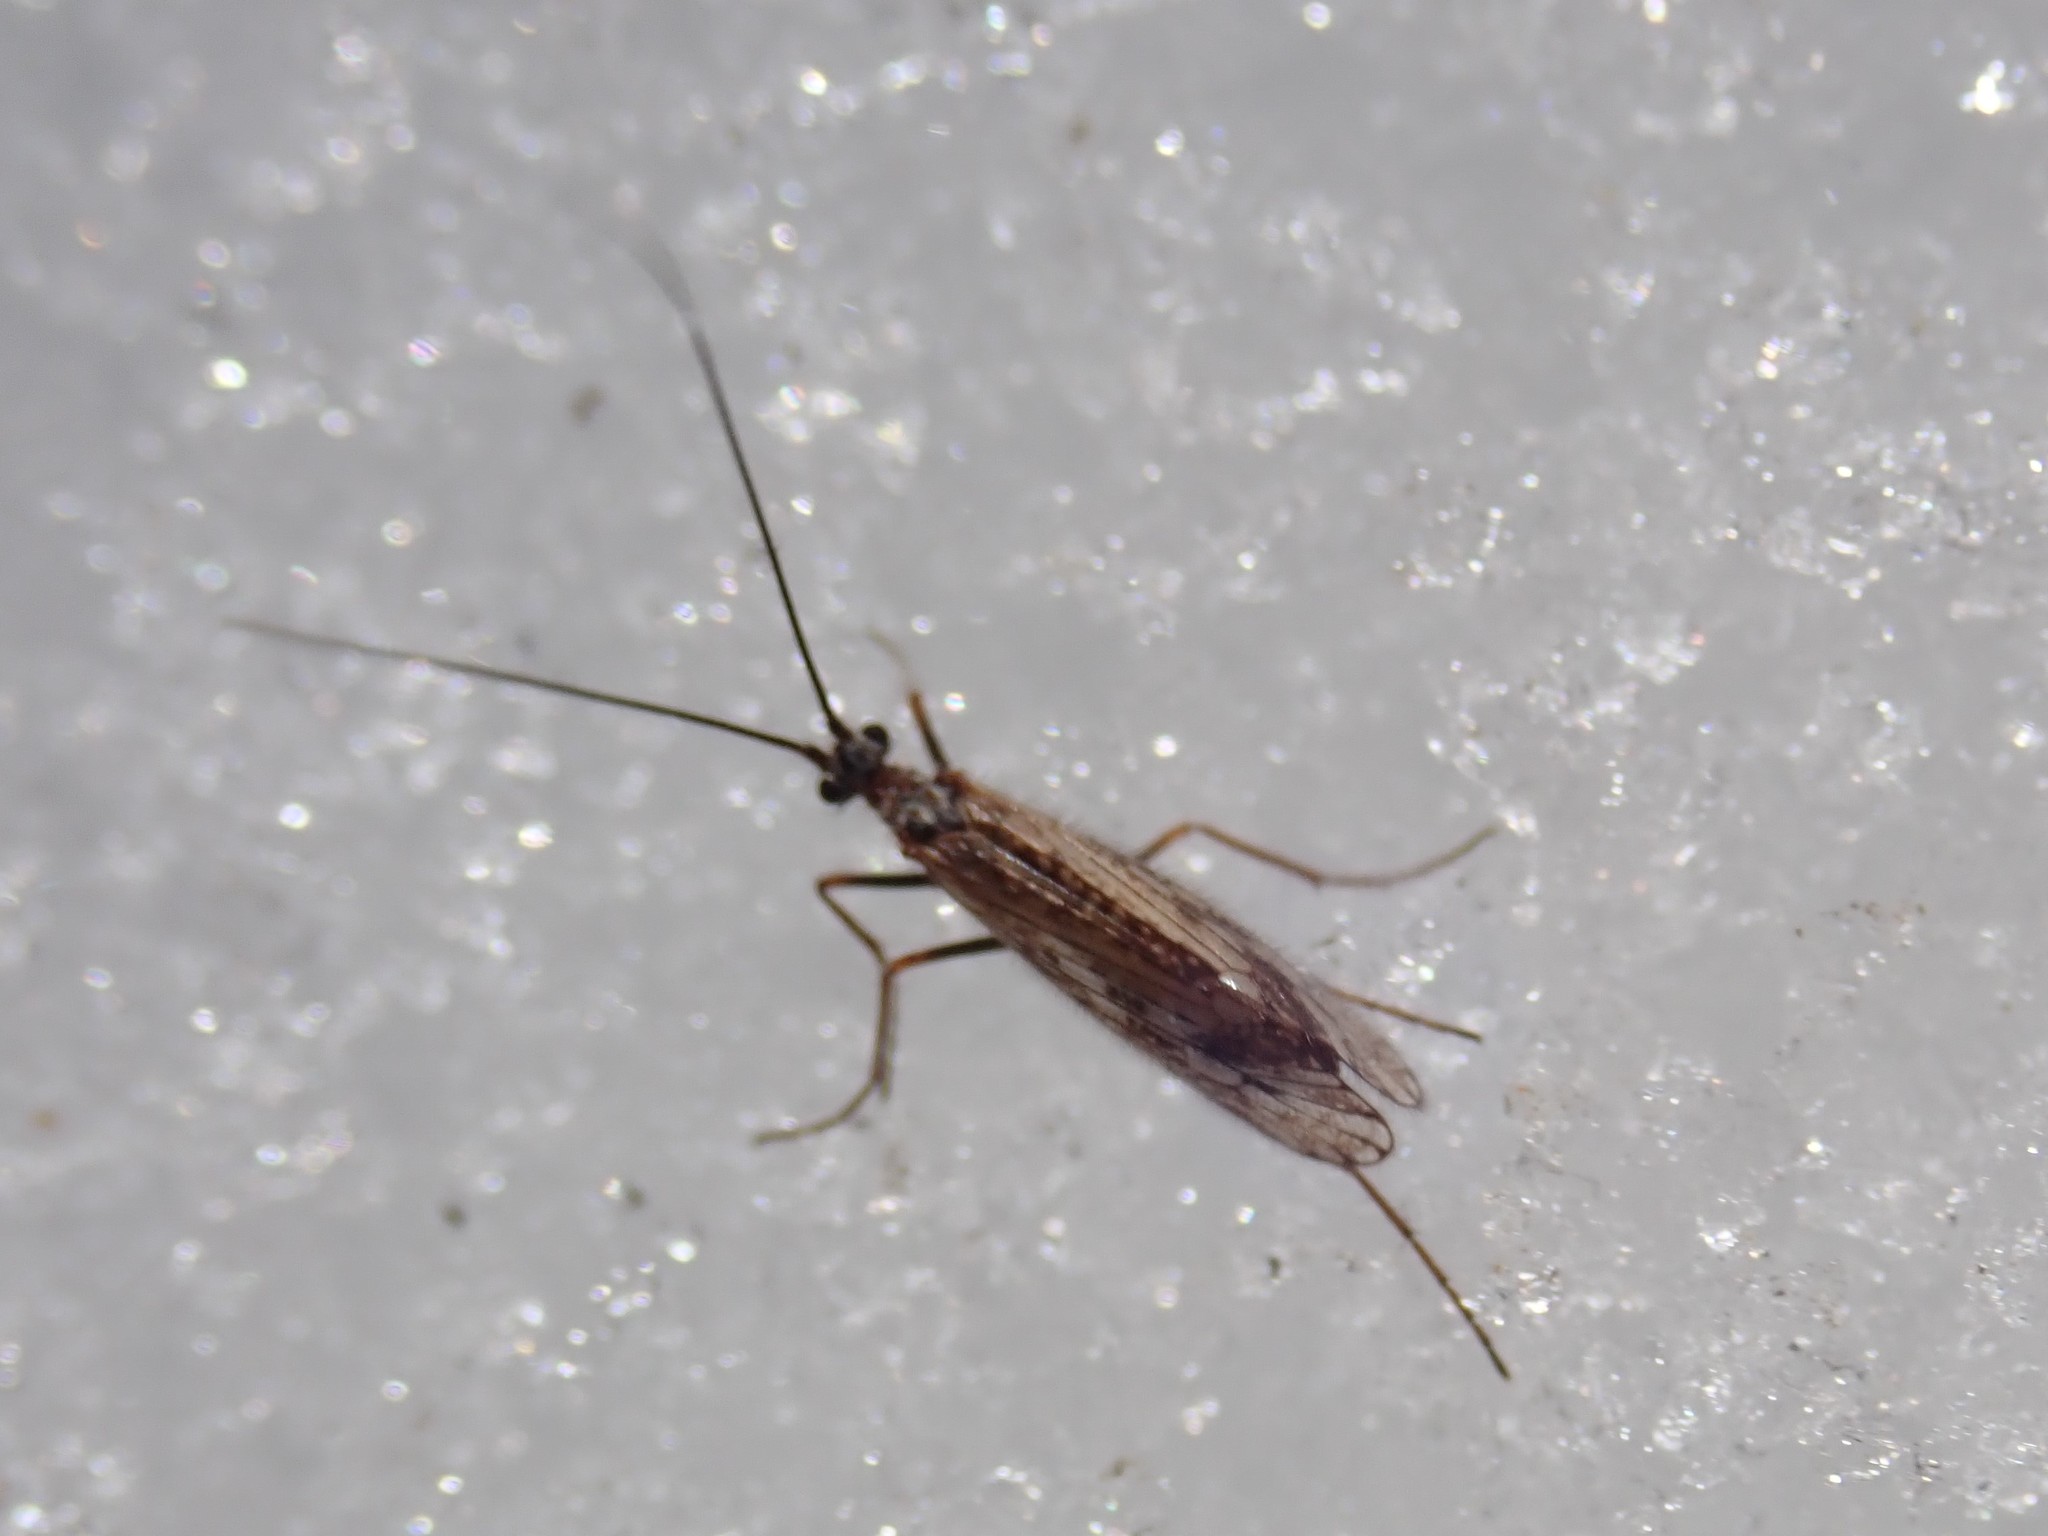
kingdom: Animalia
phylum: Arthropoda
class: Insecta
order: Trichoptera
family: Limnephilidae
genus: Chilostigma
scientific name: Chilostigma itascae
